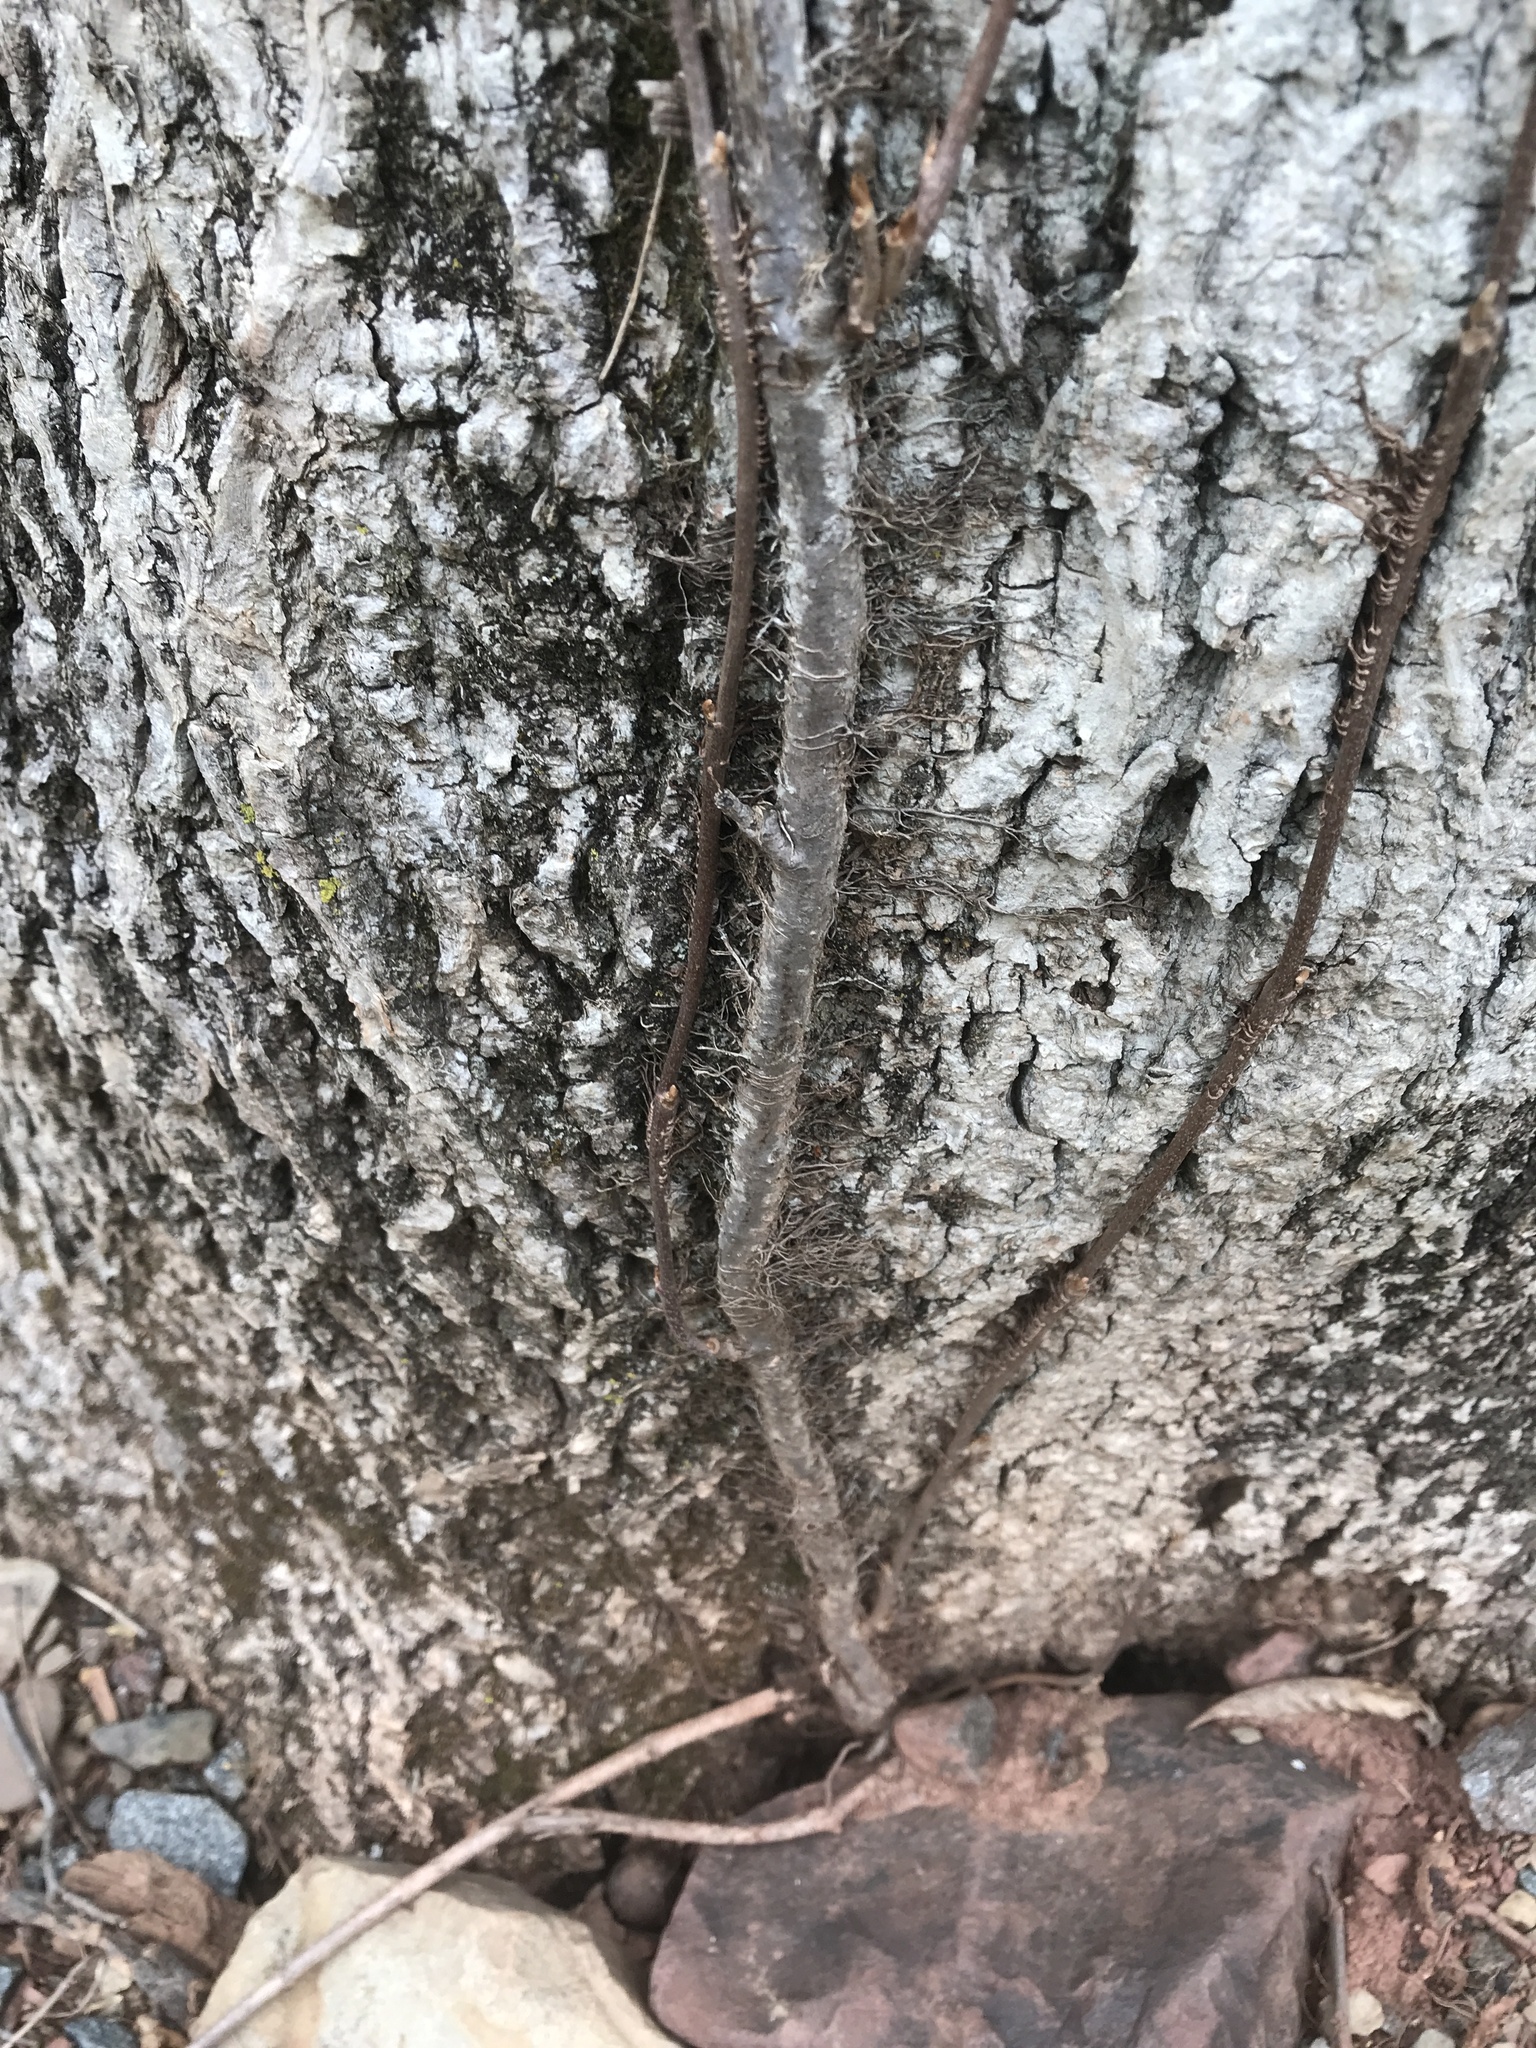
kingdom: Plantae
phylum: Tracheophyta
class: Magnoliopsida
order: Sapindales
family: Anacardiaceae
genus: Toxicodendron
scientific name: Toxicodendron radicans
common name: Poison ivy
